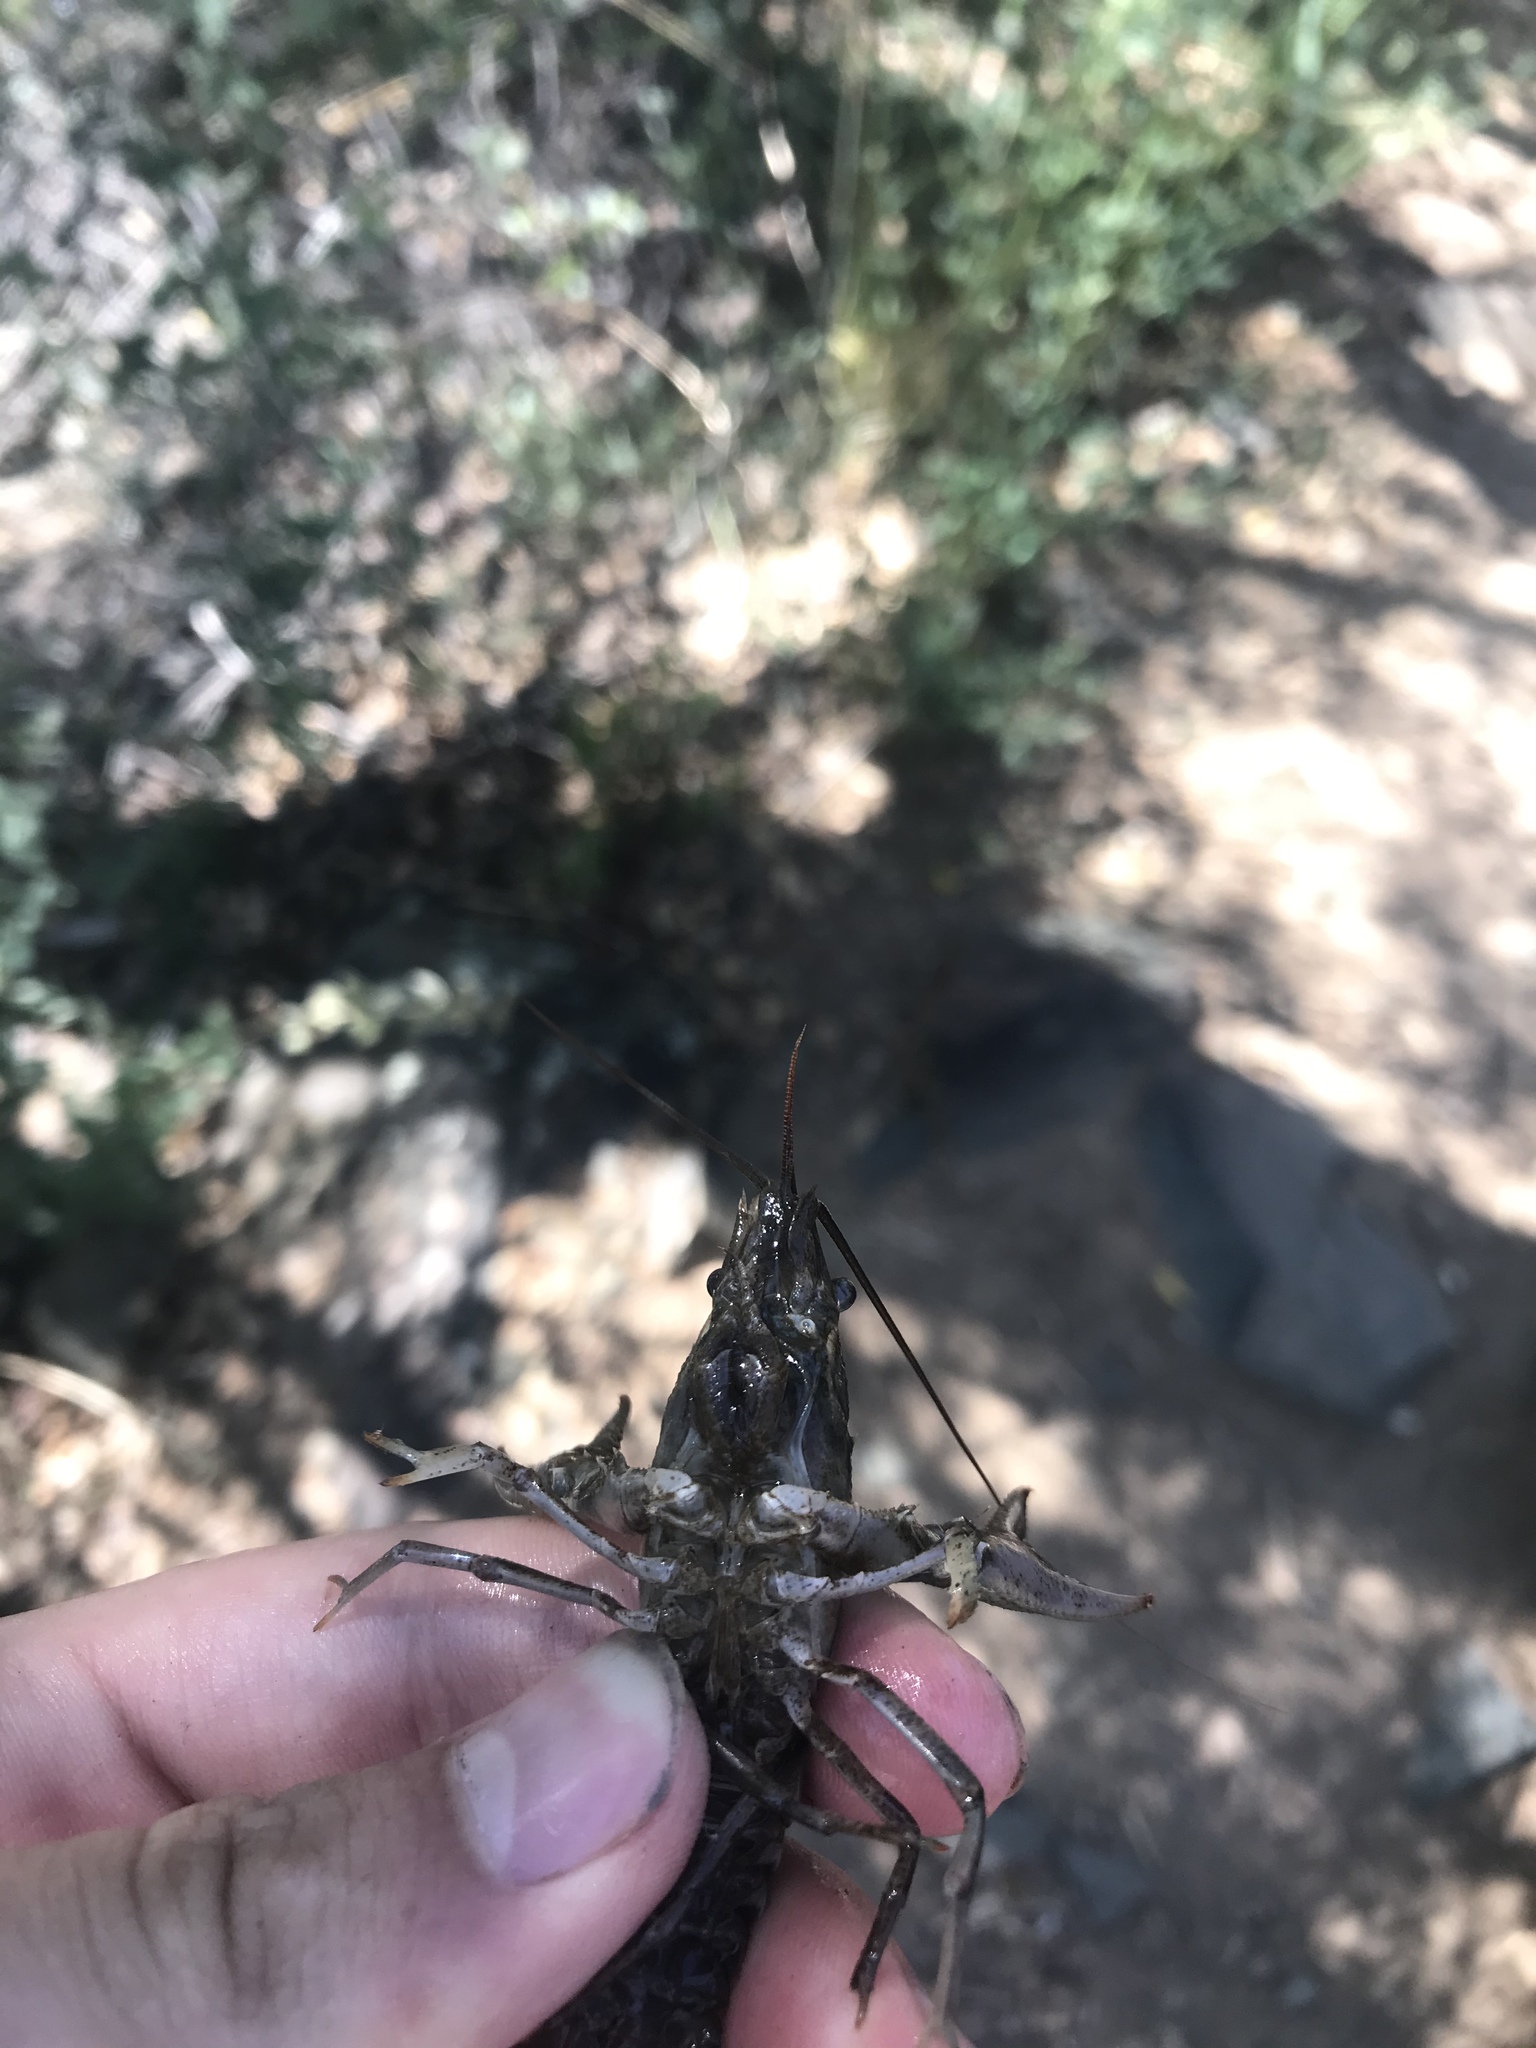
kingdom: Animalia
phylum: Arthropoda
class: Malacostraca
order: Decapoda
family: Cambaridae
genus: Faxonius
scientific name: Faxonius virilis
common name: Virile crayfish
